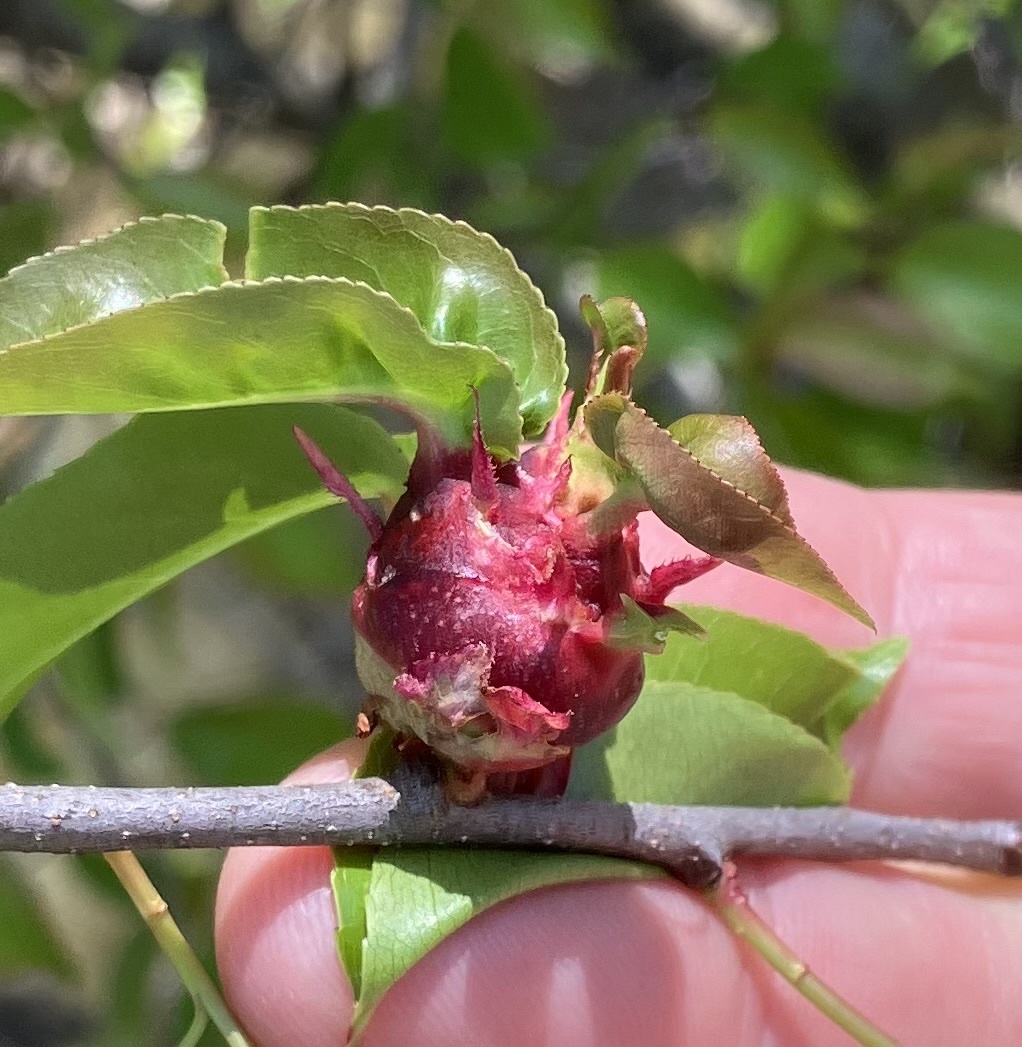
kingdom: Animalia
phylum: Arthropoda
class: Insecta
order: Diptera
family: Cecidomyiidae
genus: Contarinia
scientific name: Contarinia cerasiserotinae
